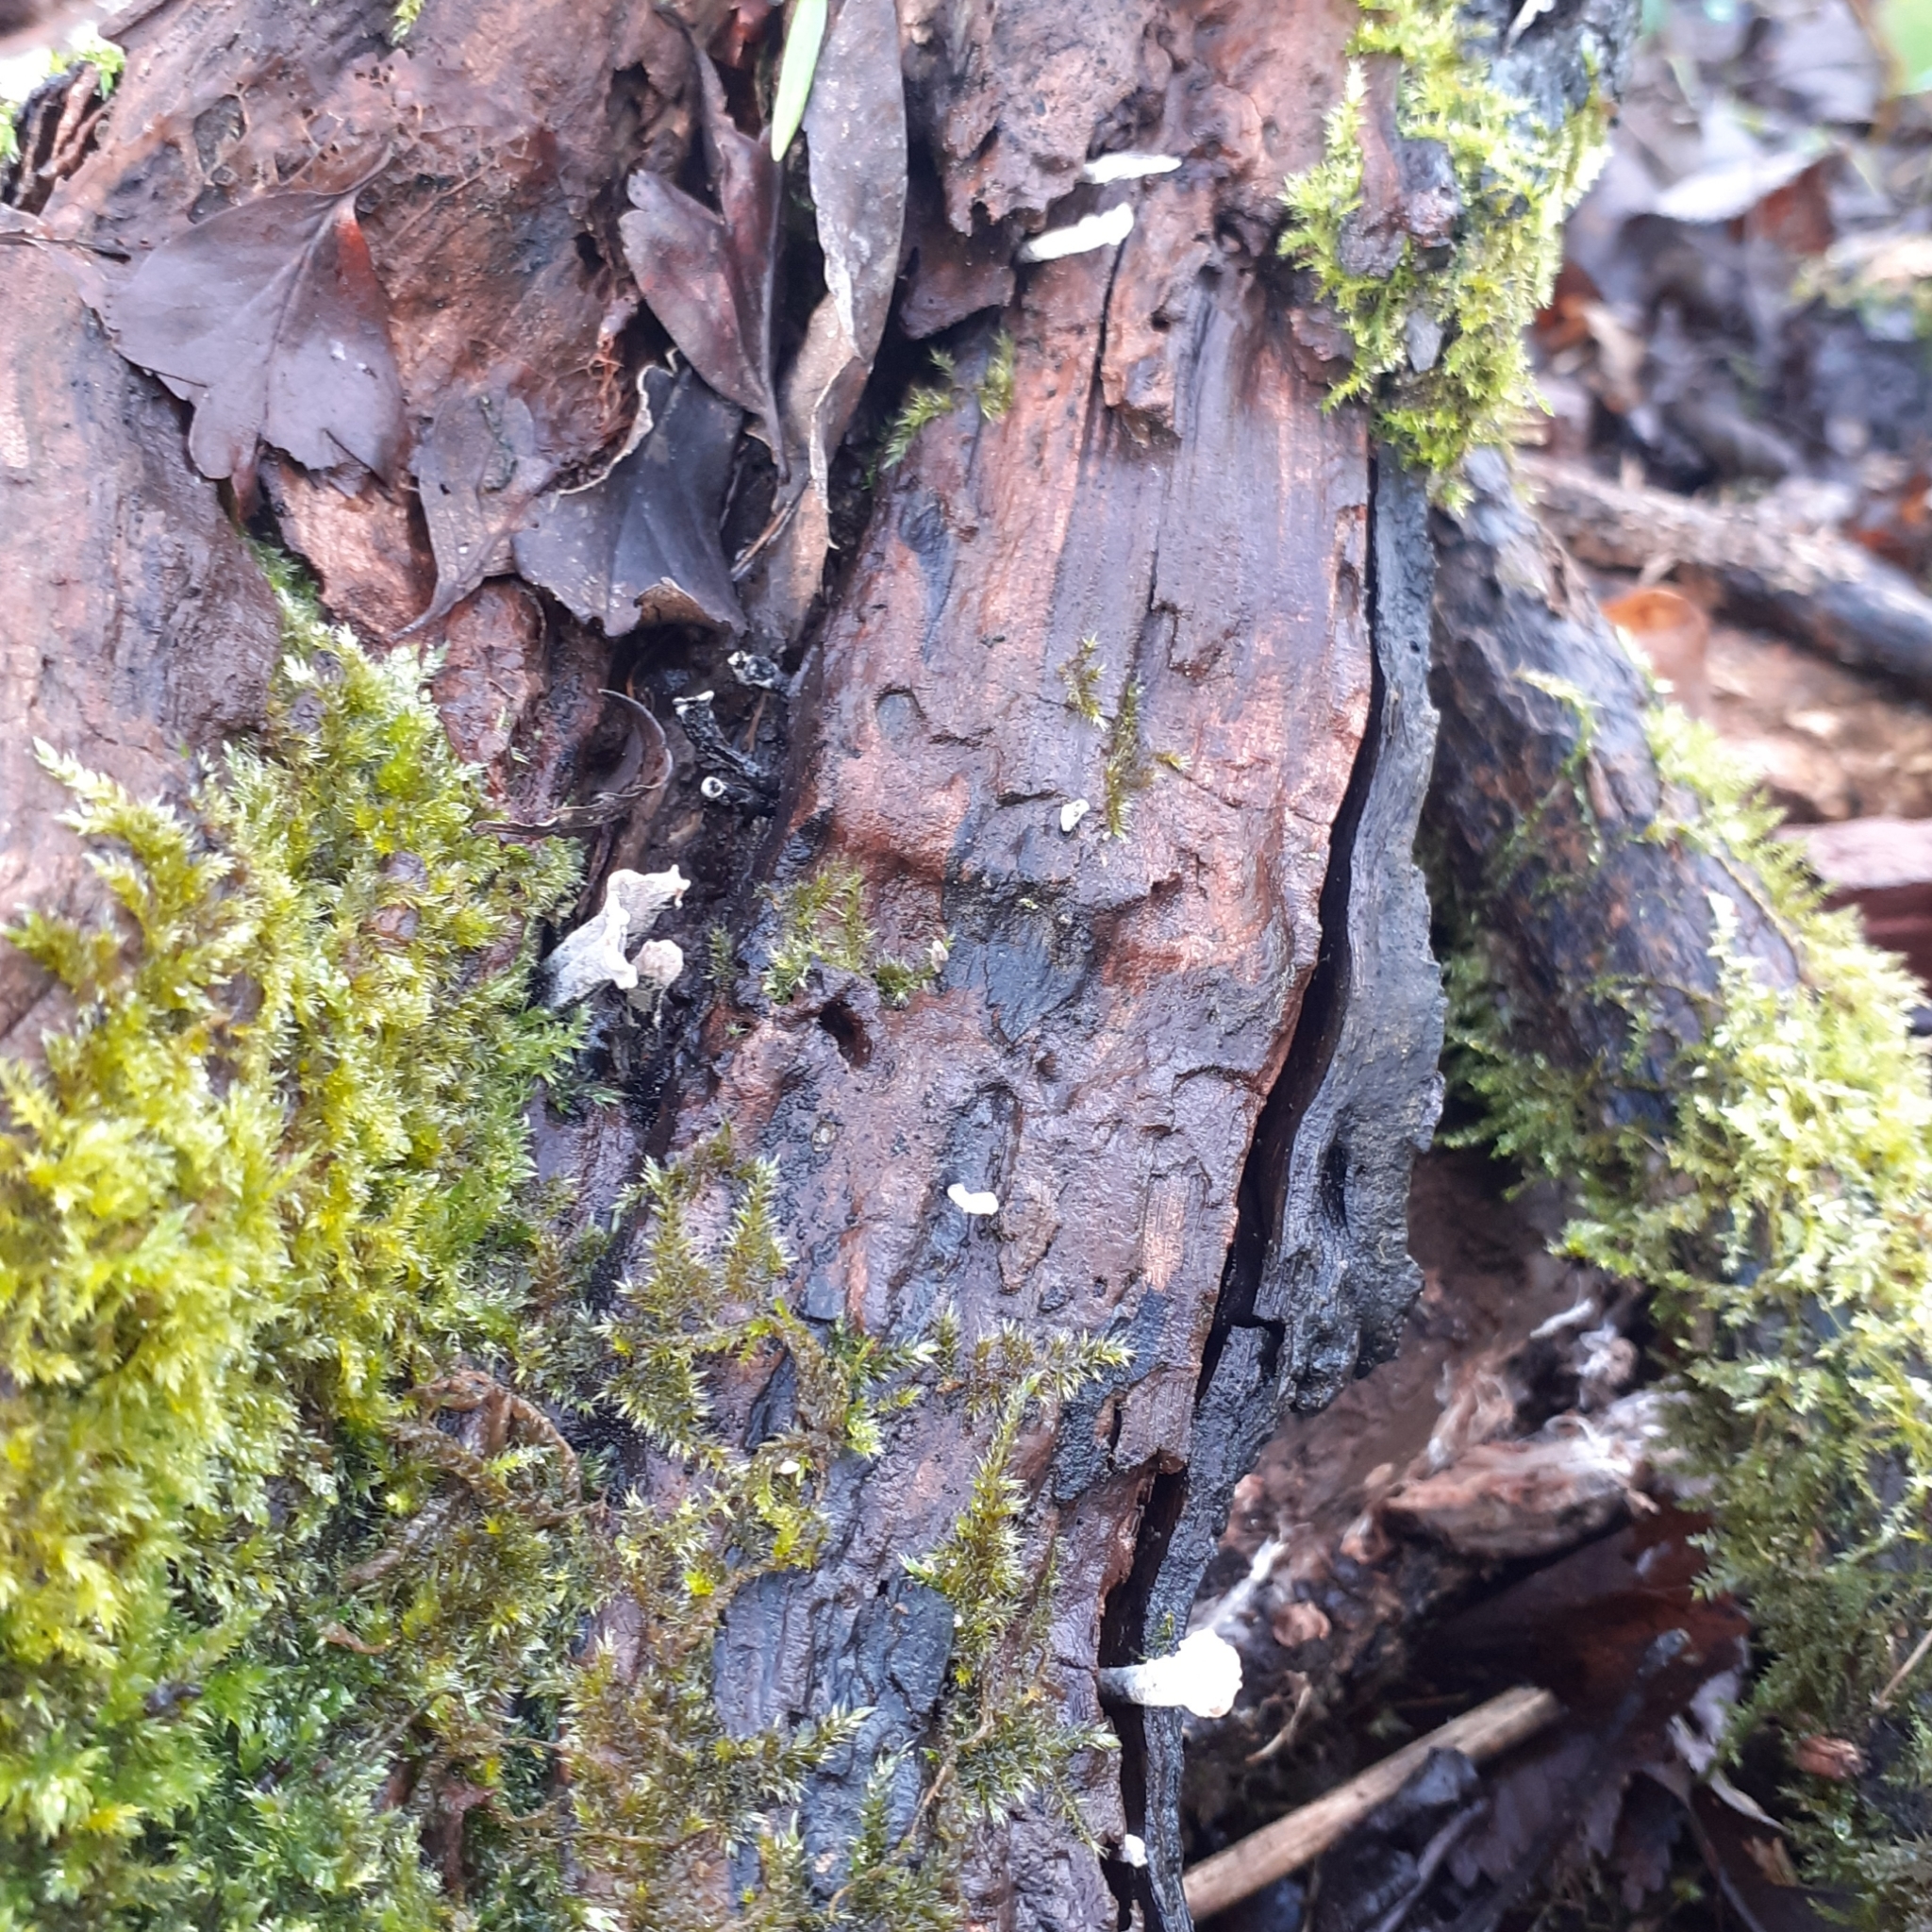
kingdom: Fungi
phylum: Ascomycota
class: Sordariomycetes
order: Xylariales
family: Xylariaceae
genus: Xylaria
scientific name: Xylaria hypoxylon
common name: Candle-snuff fungus
